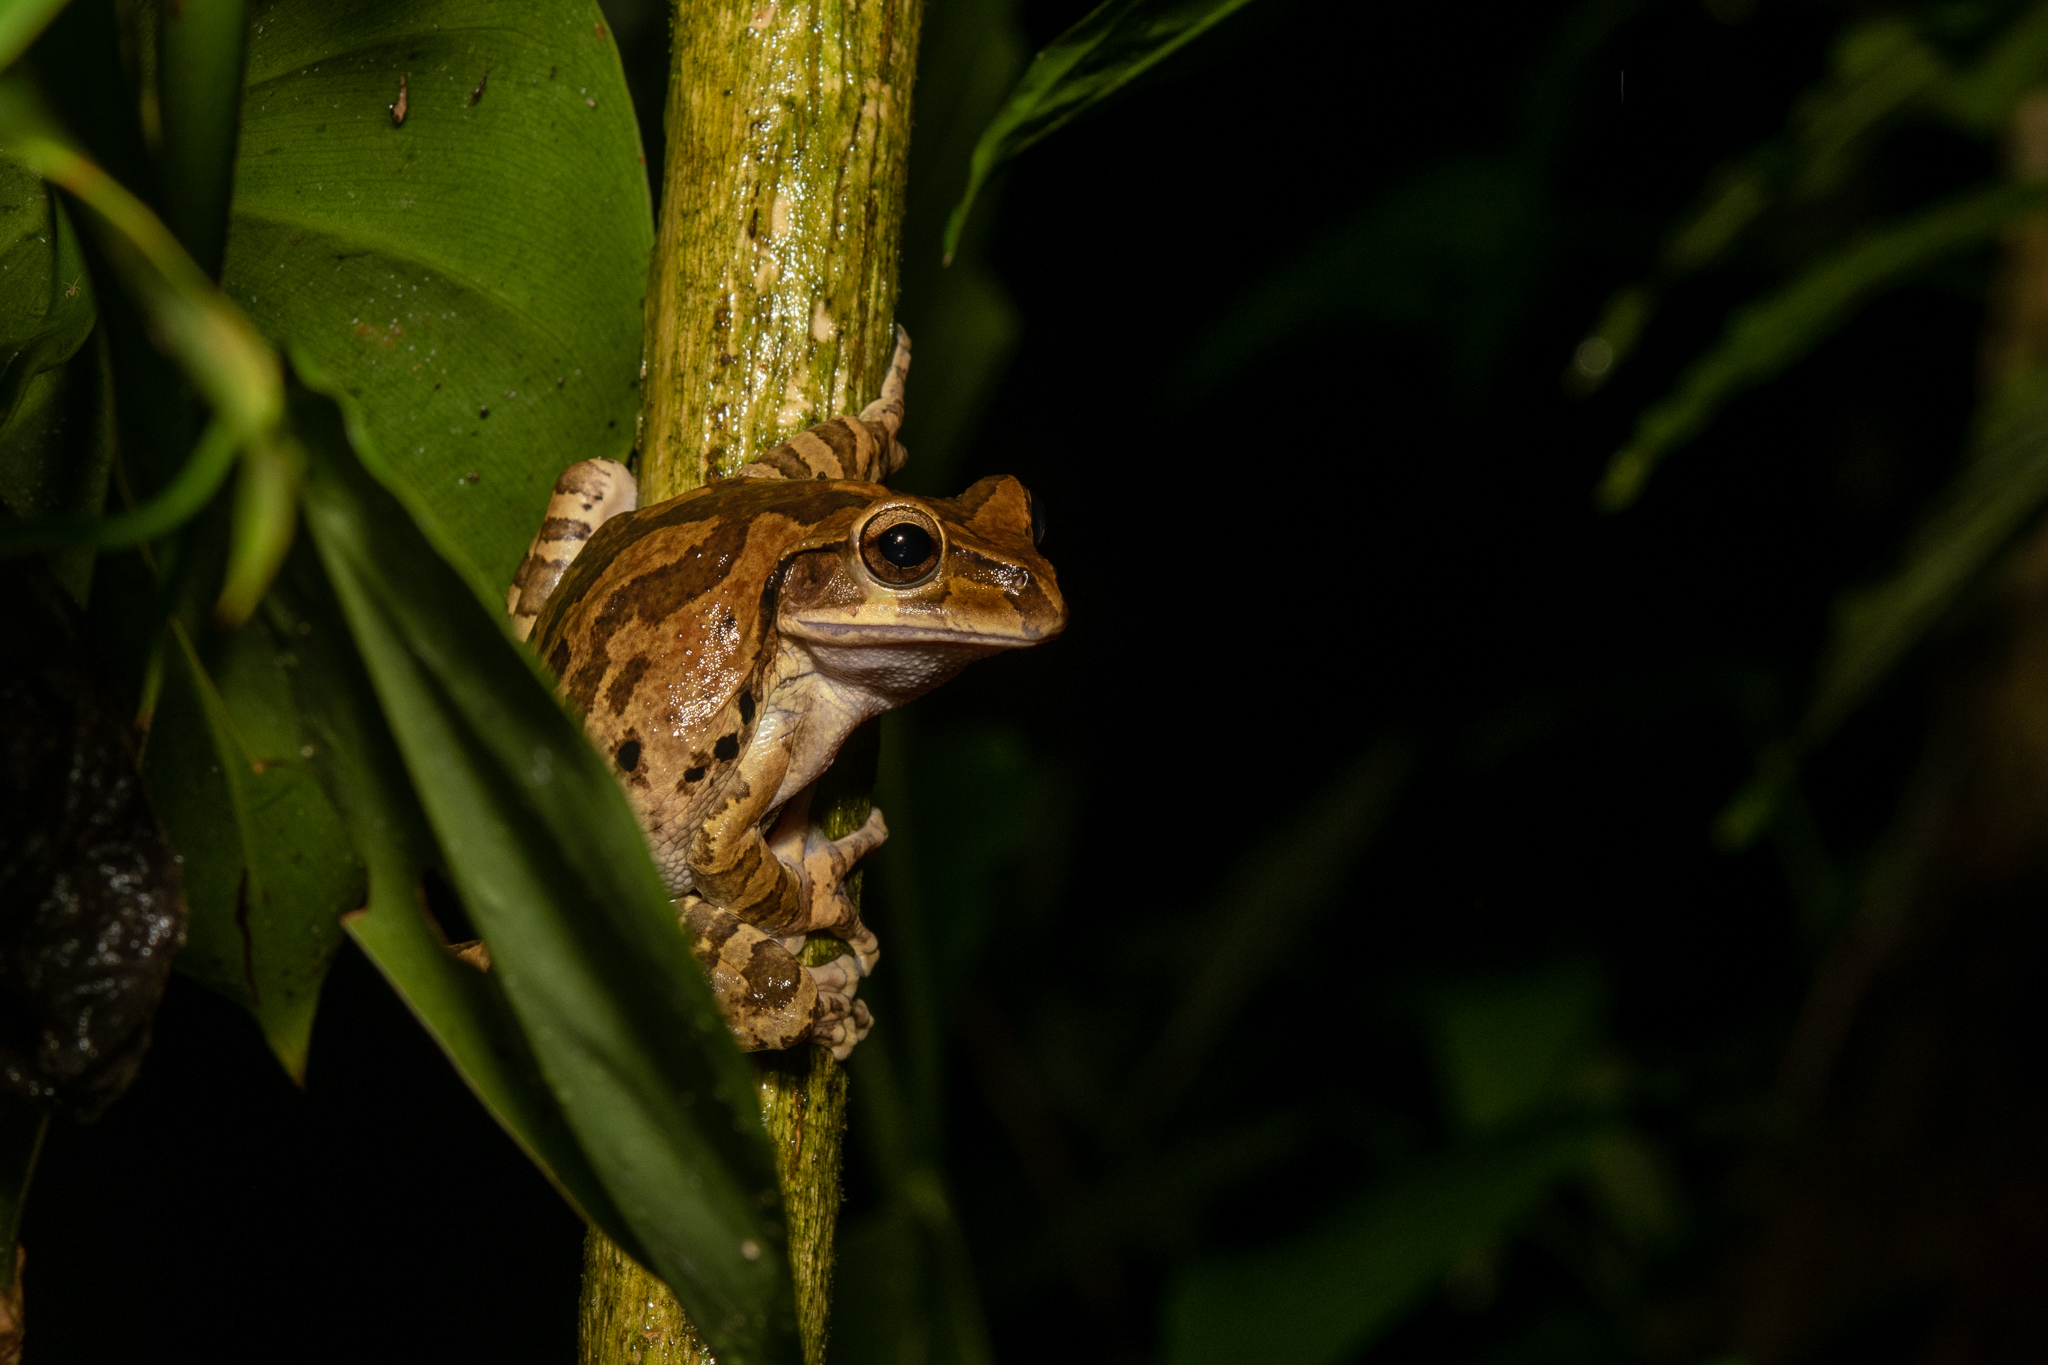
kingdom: Animalia
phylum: Chordata
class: Amphibia
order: Anura
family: Hylidae
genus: Smilisca
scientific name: Smilisca baudinii
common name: Mexican smilisca
